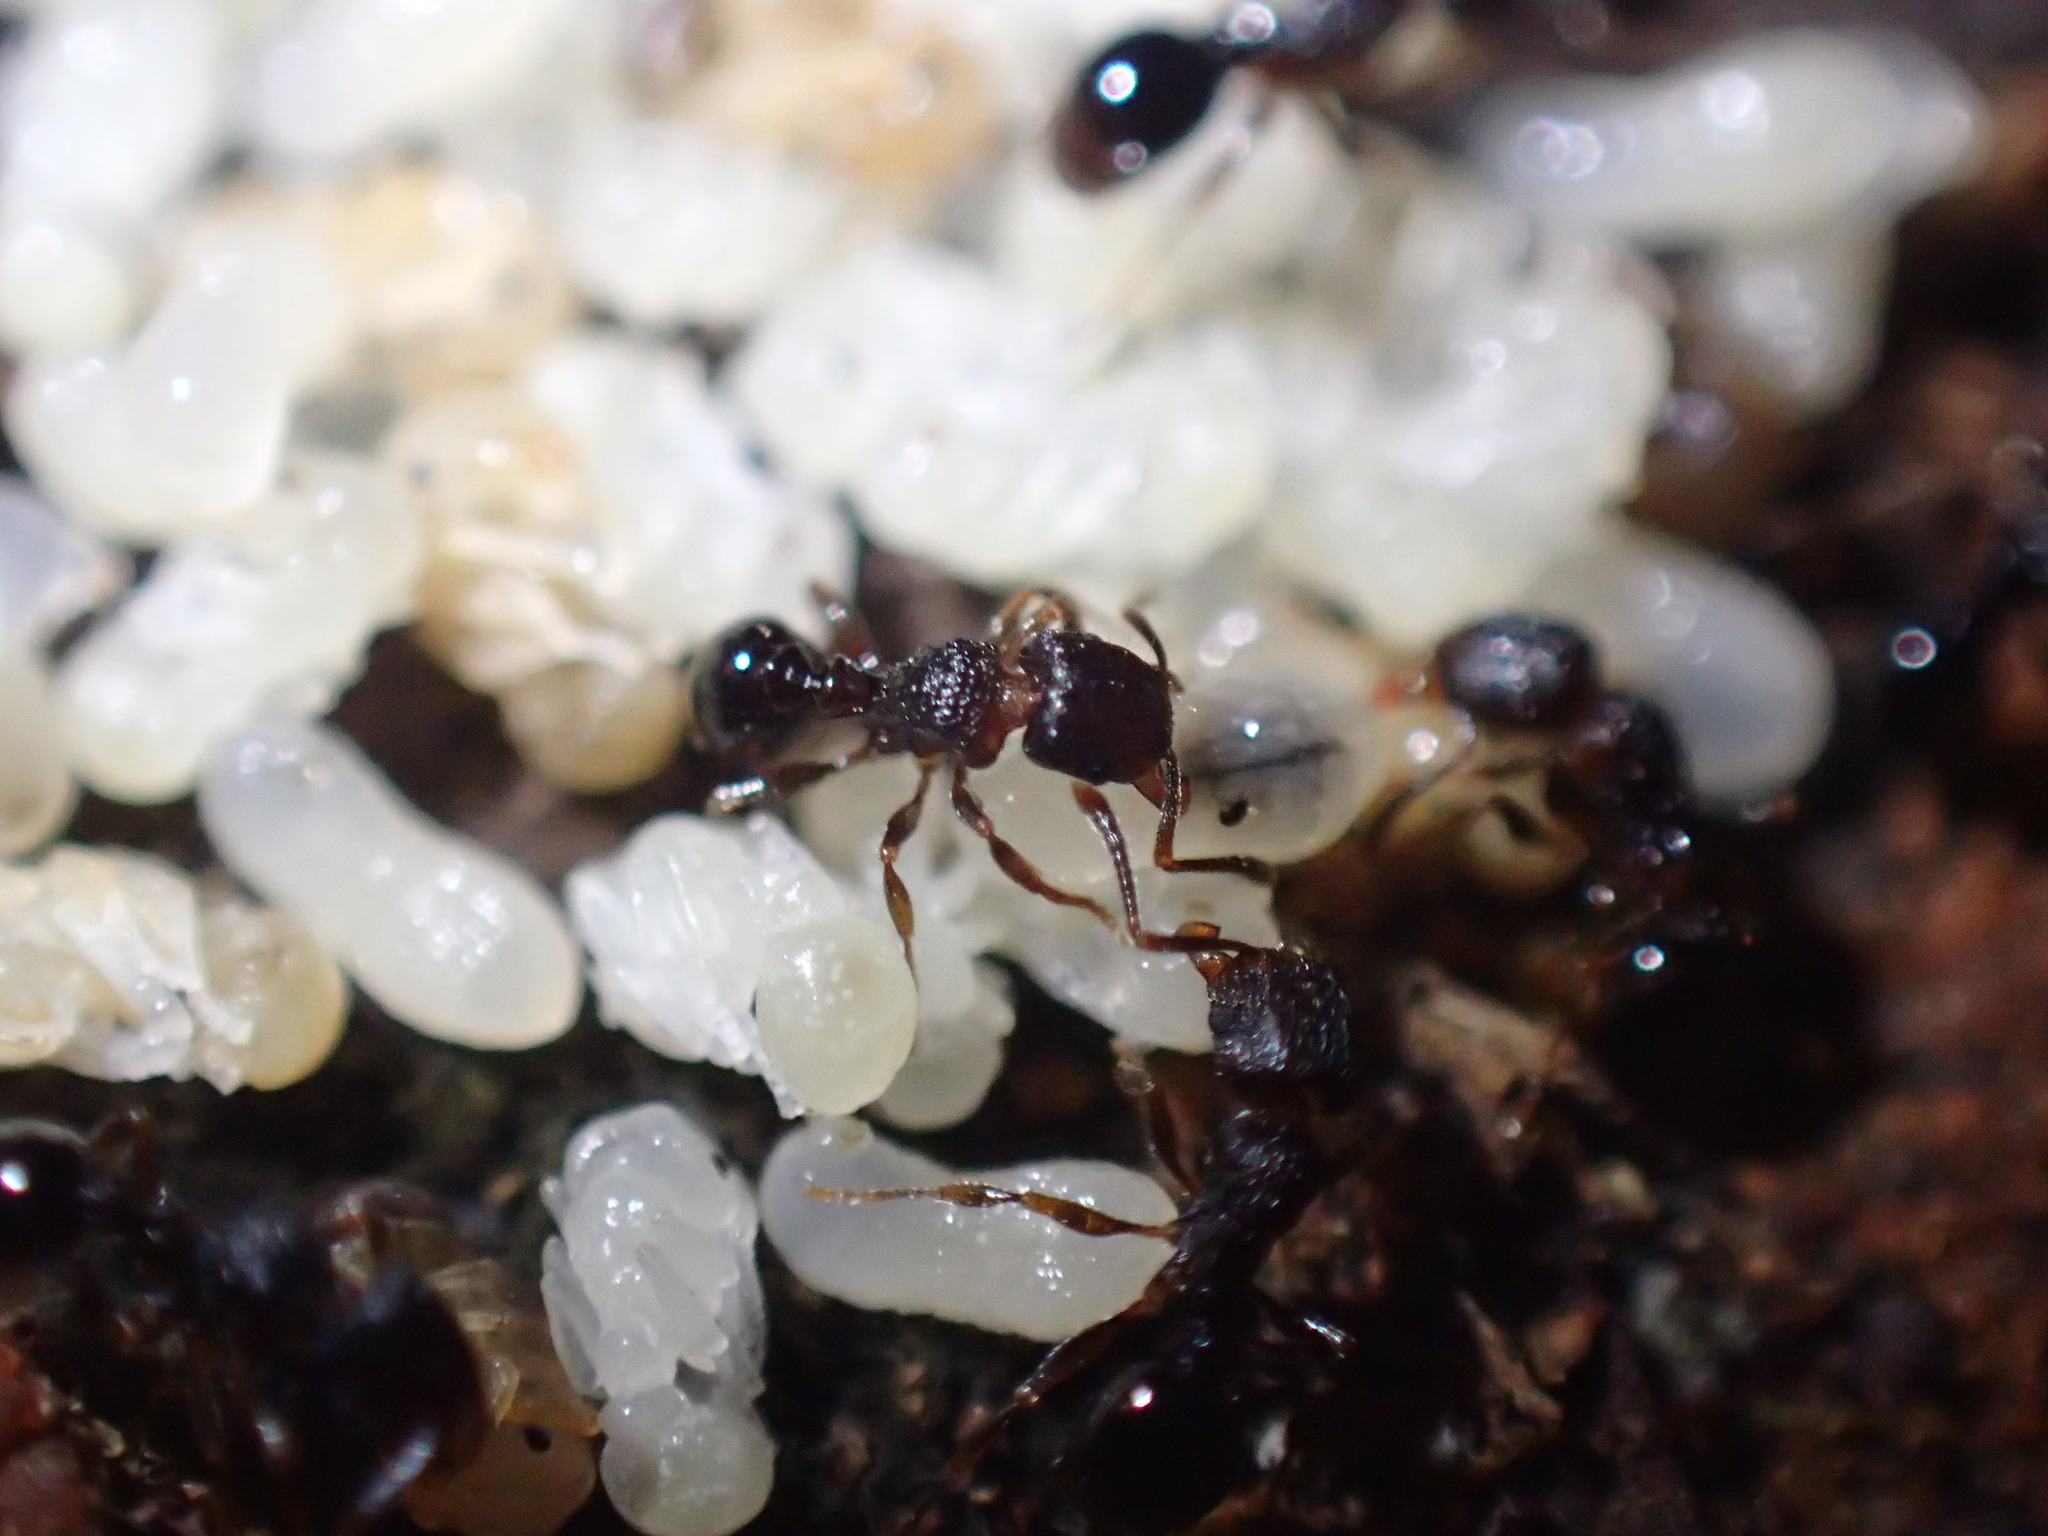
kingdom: Animalia
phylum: Arthropoda
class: Insecta
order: Hymenoptera
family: Formicidae
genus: Tetramorium
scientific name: Tetramorium erectum
